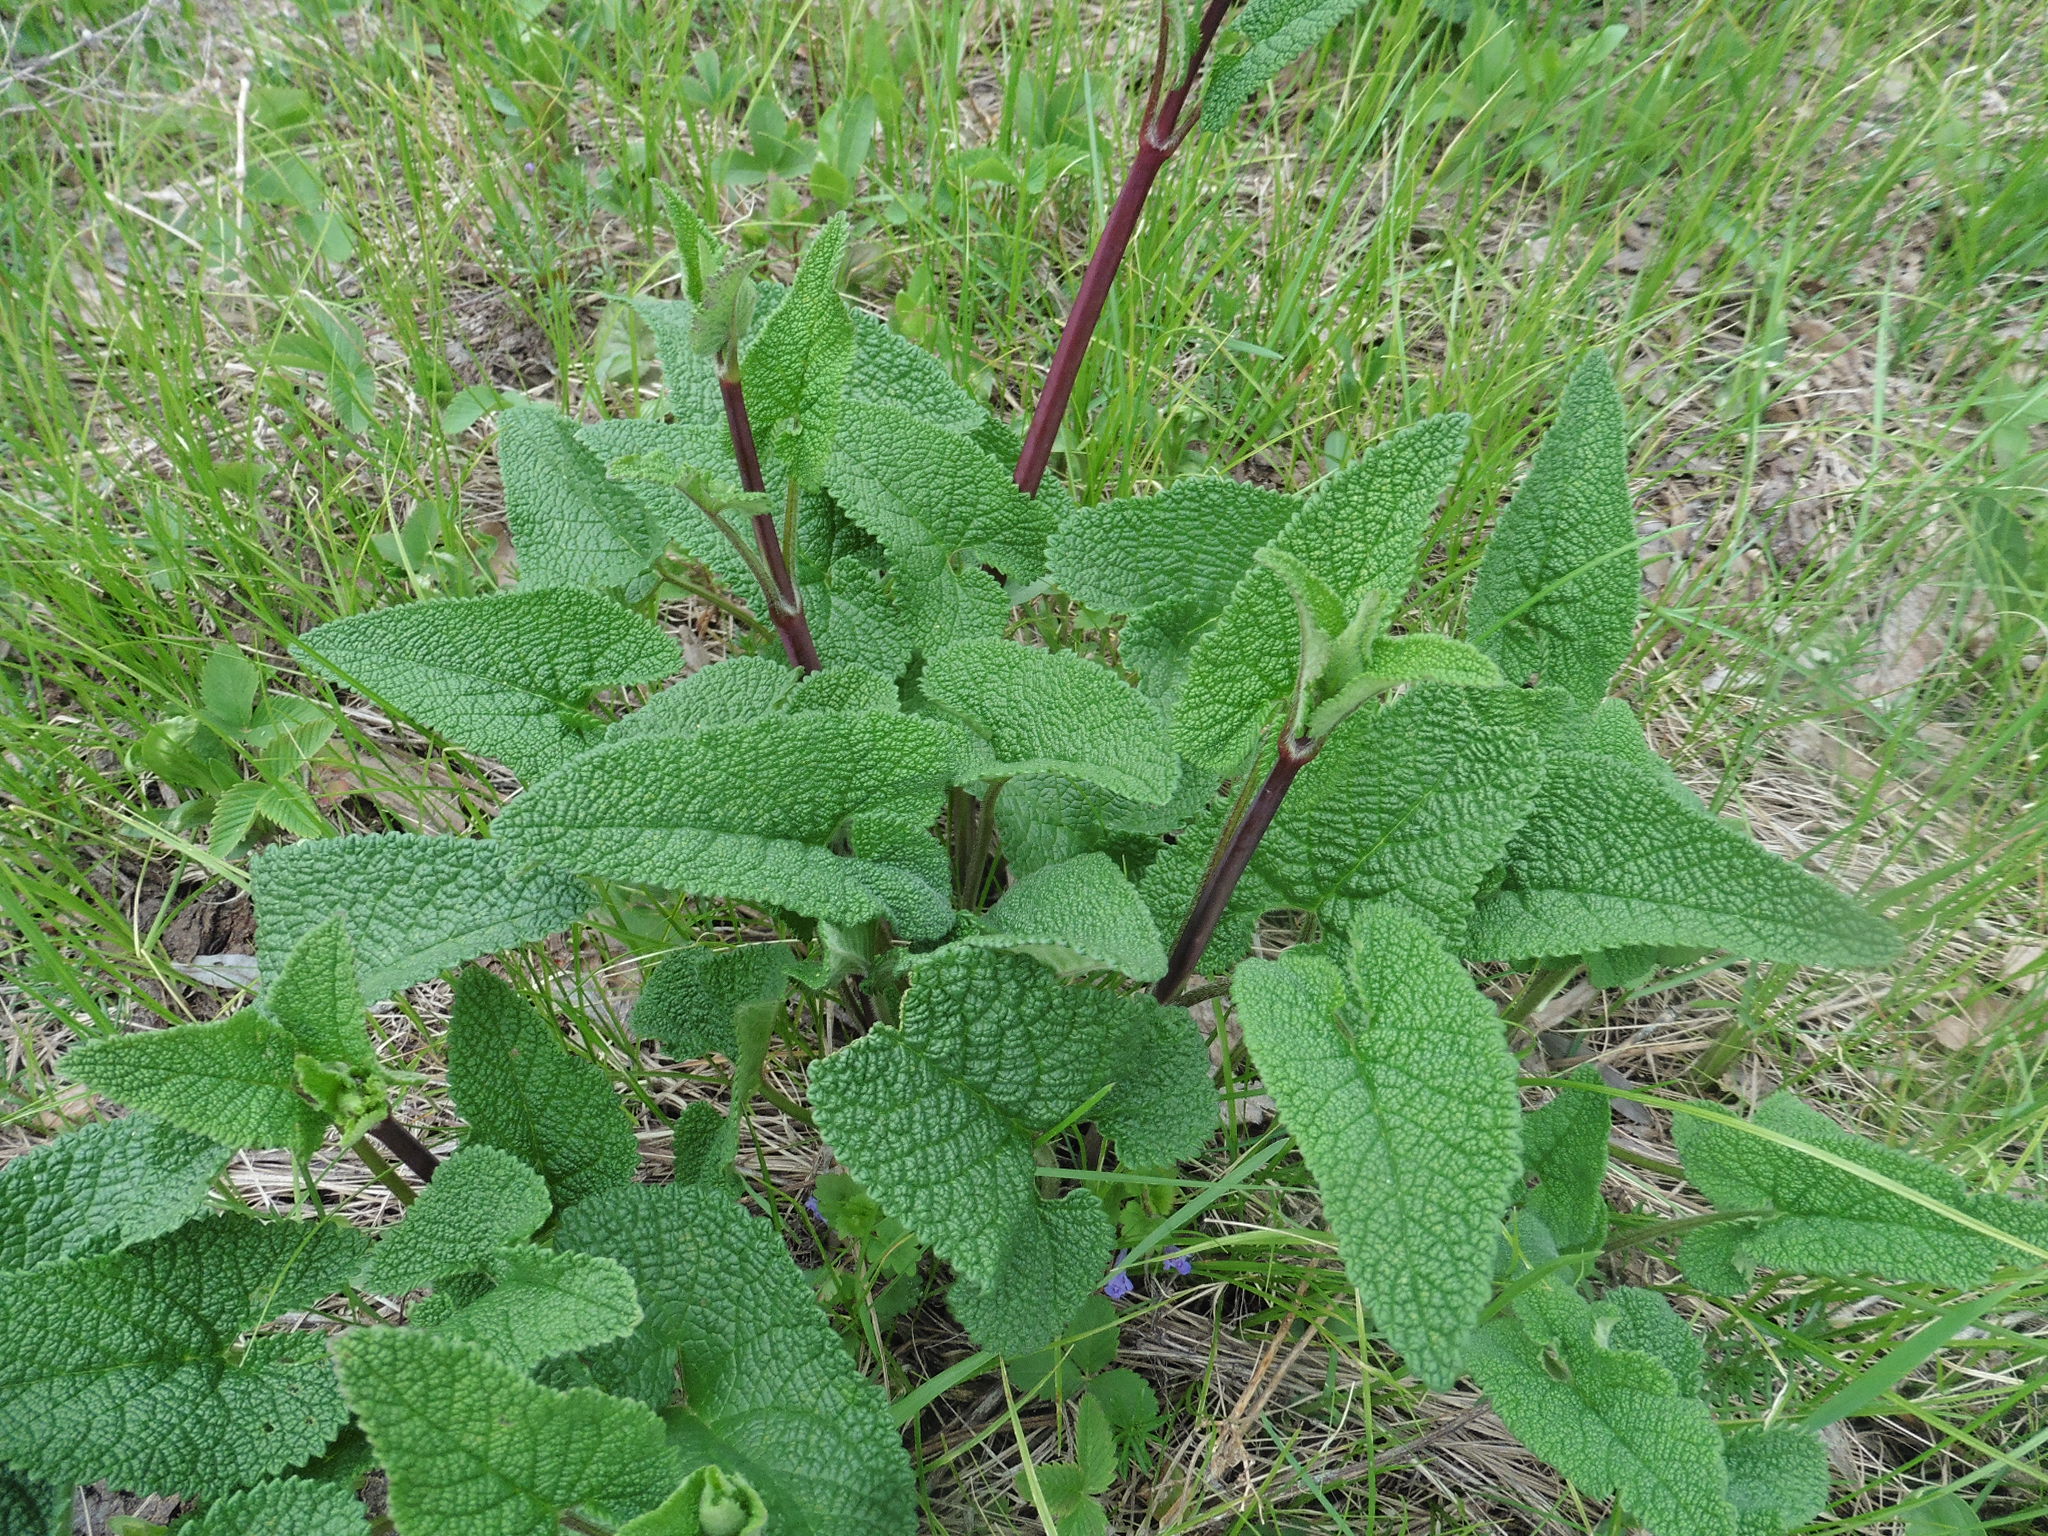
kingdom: Plantae
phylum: Tracheophyta
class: Magnoliopsida
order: Lamiales
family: Lamiaceae
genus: Phlomoides
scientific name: Phlomoides tuberosa
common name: Tuberous jerusalem sage
